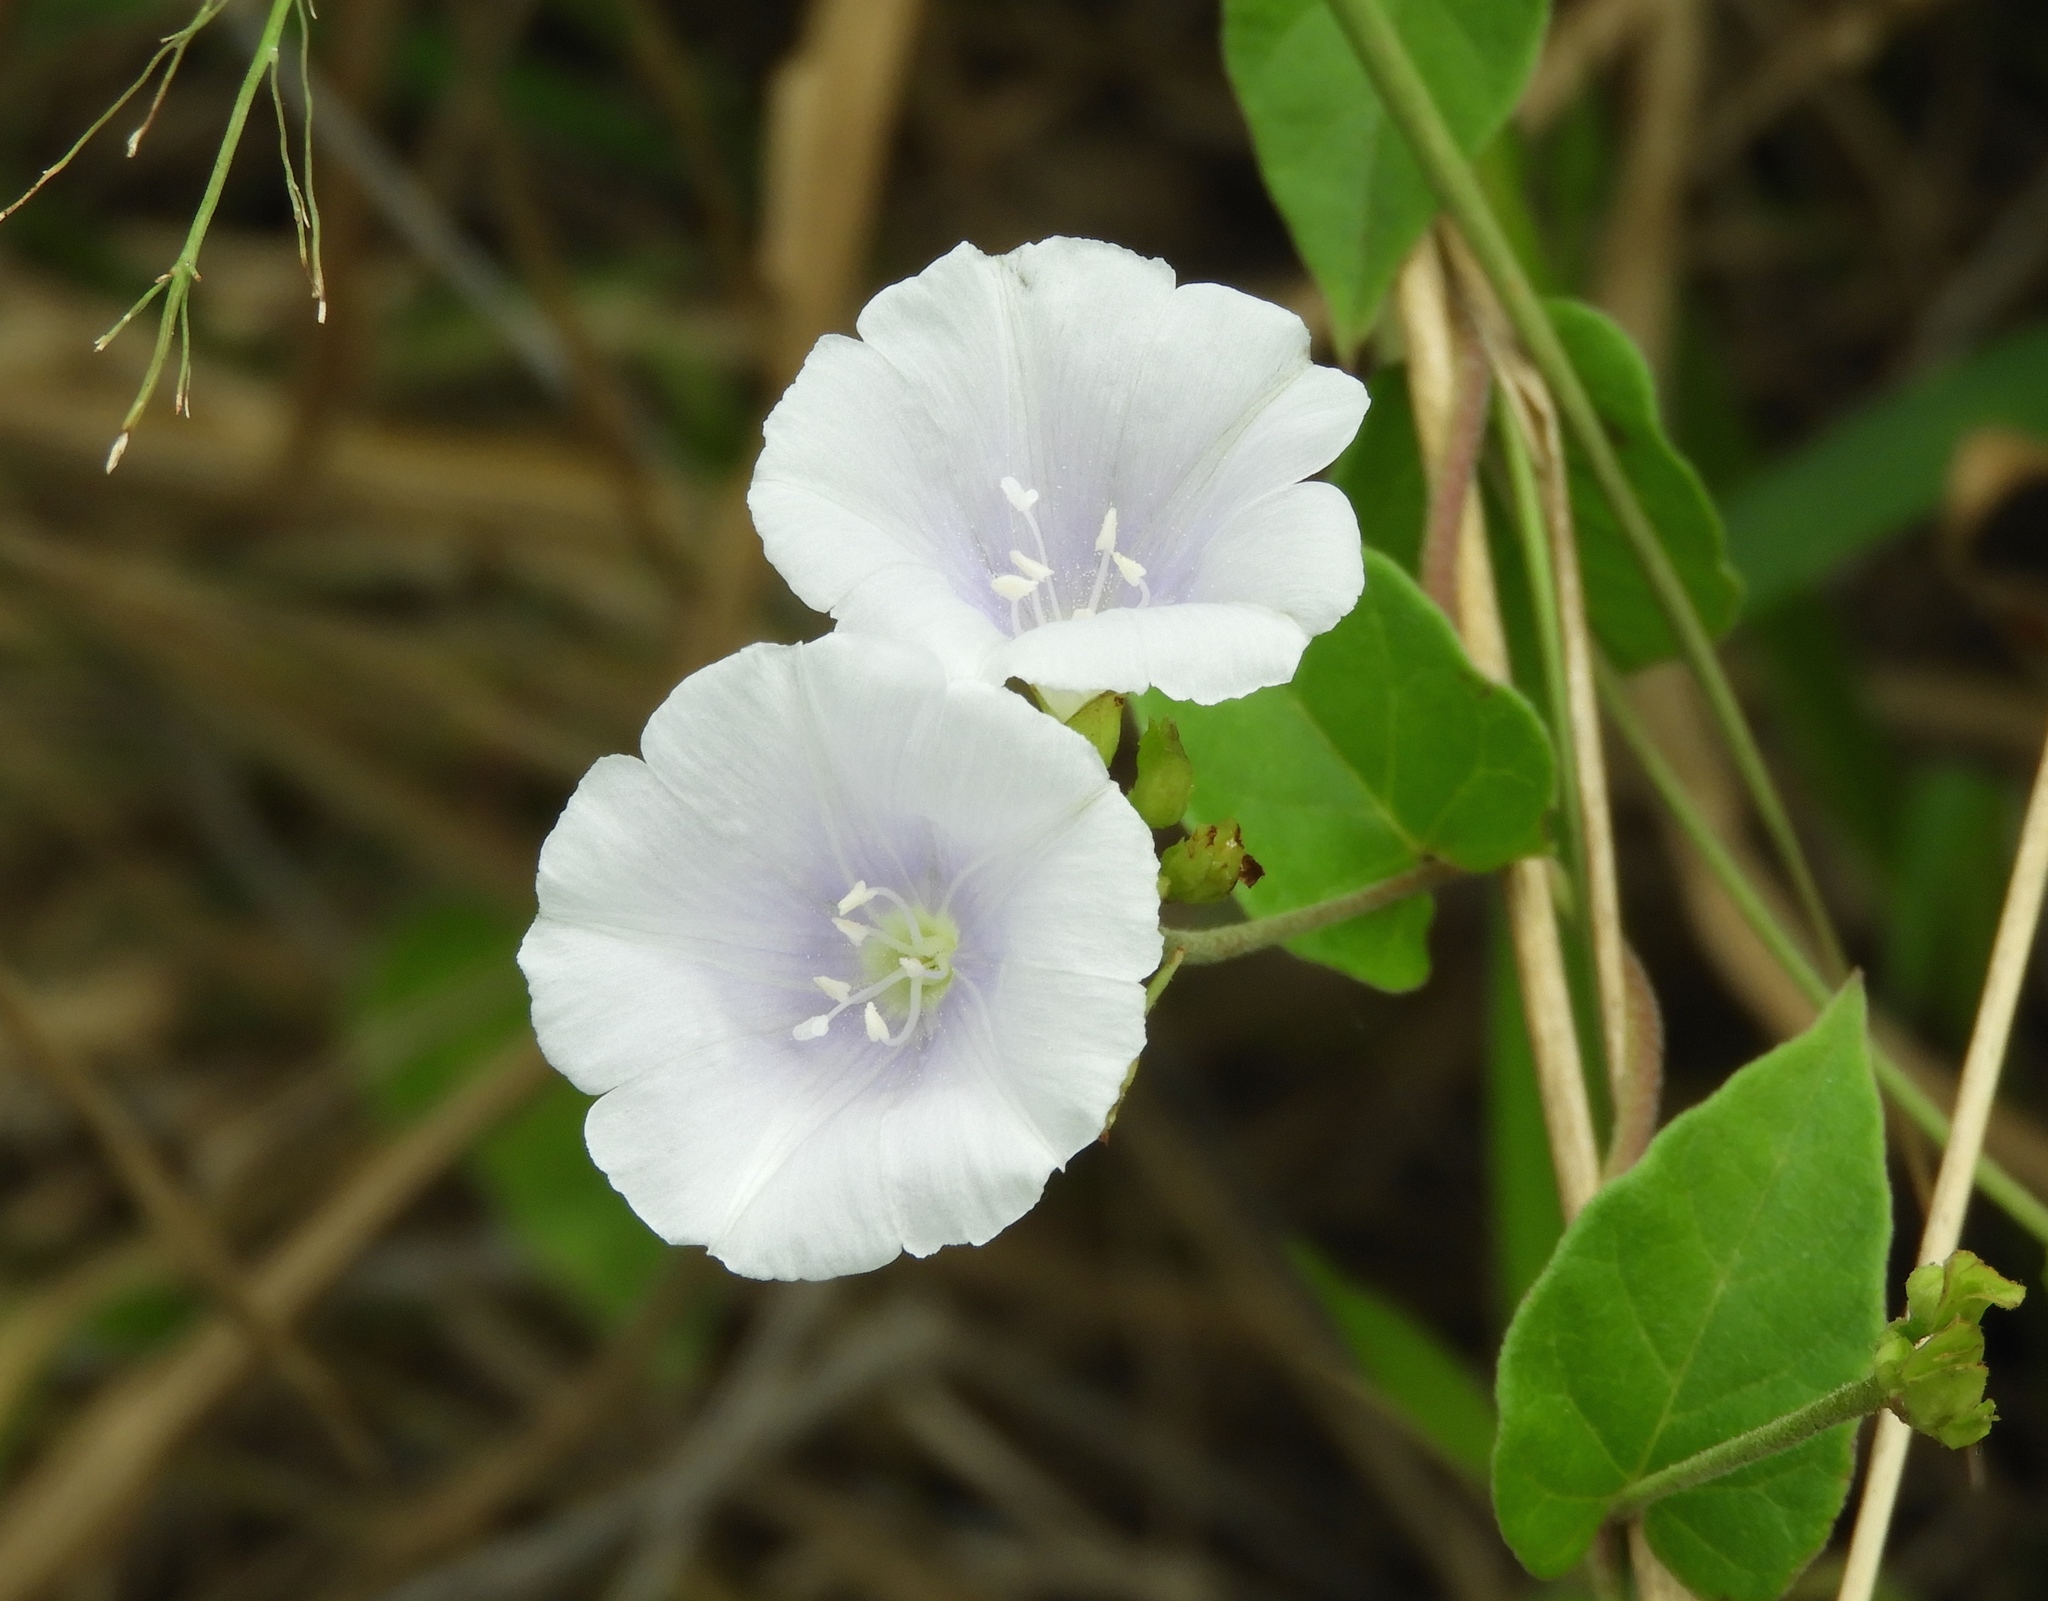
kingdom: Plantae
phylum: Tracheophyta
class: Magnoliopsida
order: Solanales
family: Convolvulaceae
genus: Jacquemontia
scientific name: Jacquemontia pringlei
